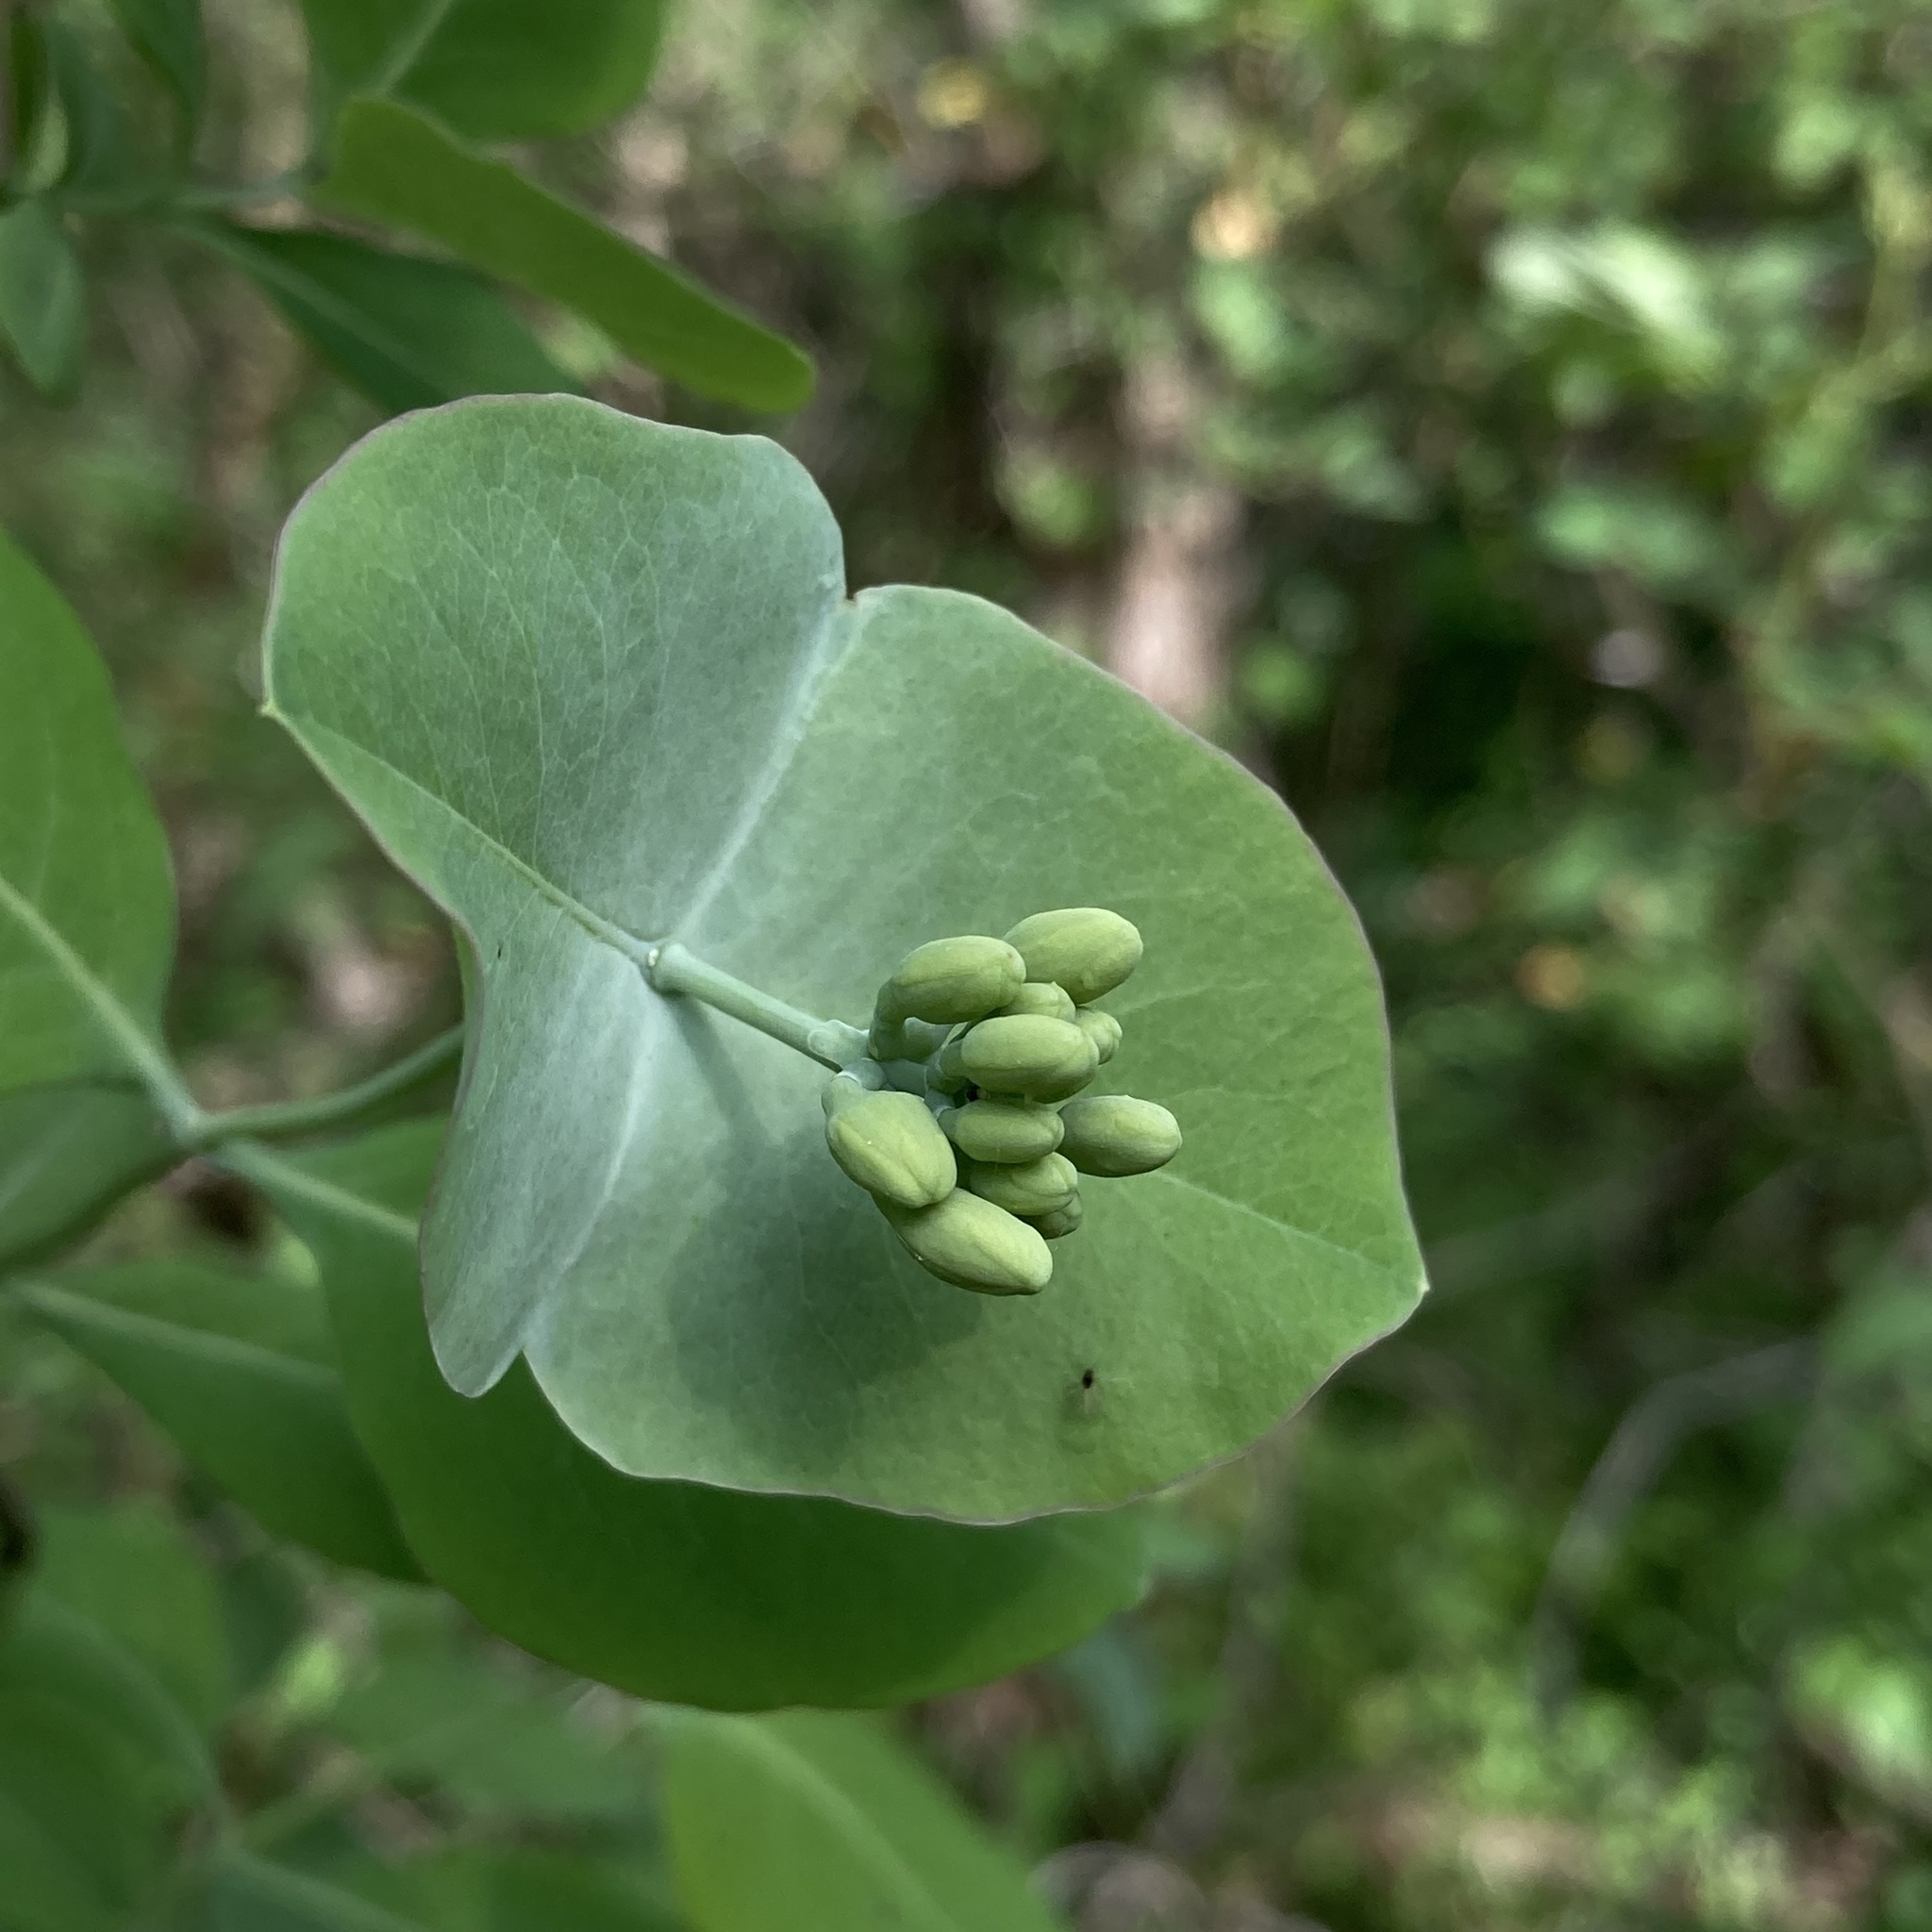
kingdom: Plantae
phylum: Tracheophyta
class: Magnoliopsida
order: Dipsacales
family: Caprifoliaceae
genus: Lonicera
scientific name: Lonicera reticulata
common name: Grape honeysuckle
